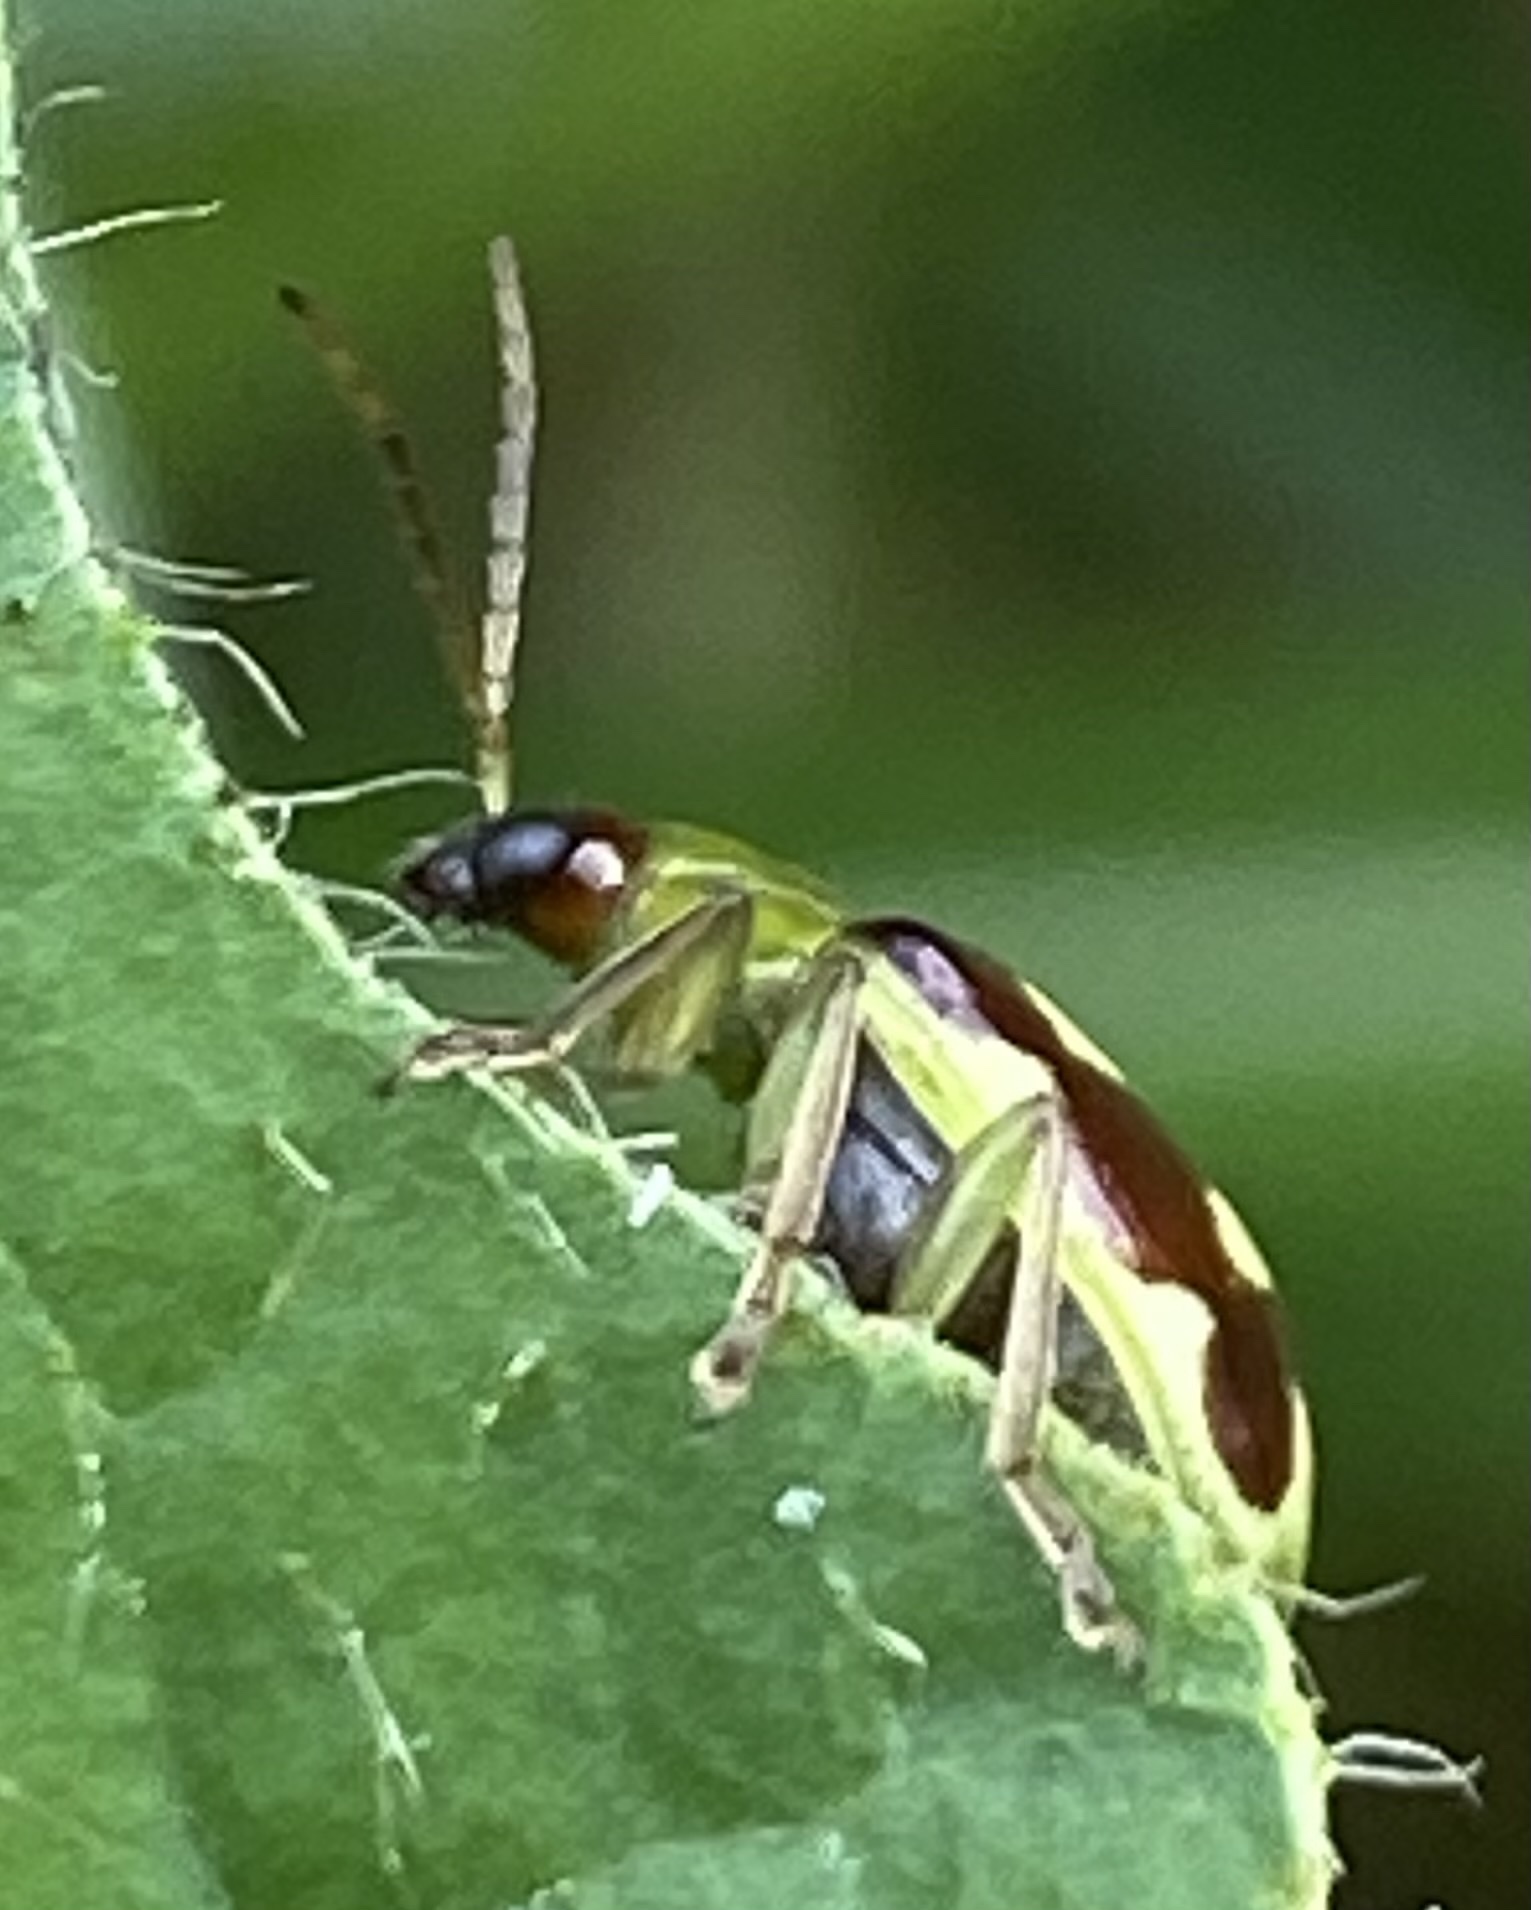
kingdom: Animalia
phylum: Arthropoda
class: Insecta
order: Coleoptera
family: Chrysomelidae
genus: Basiprionota
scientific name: Basiprionota sinuata
